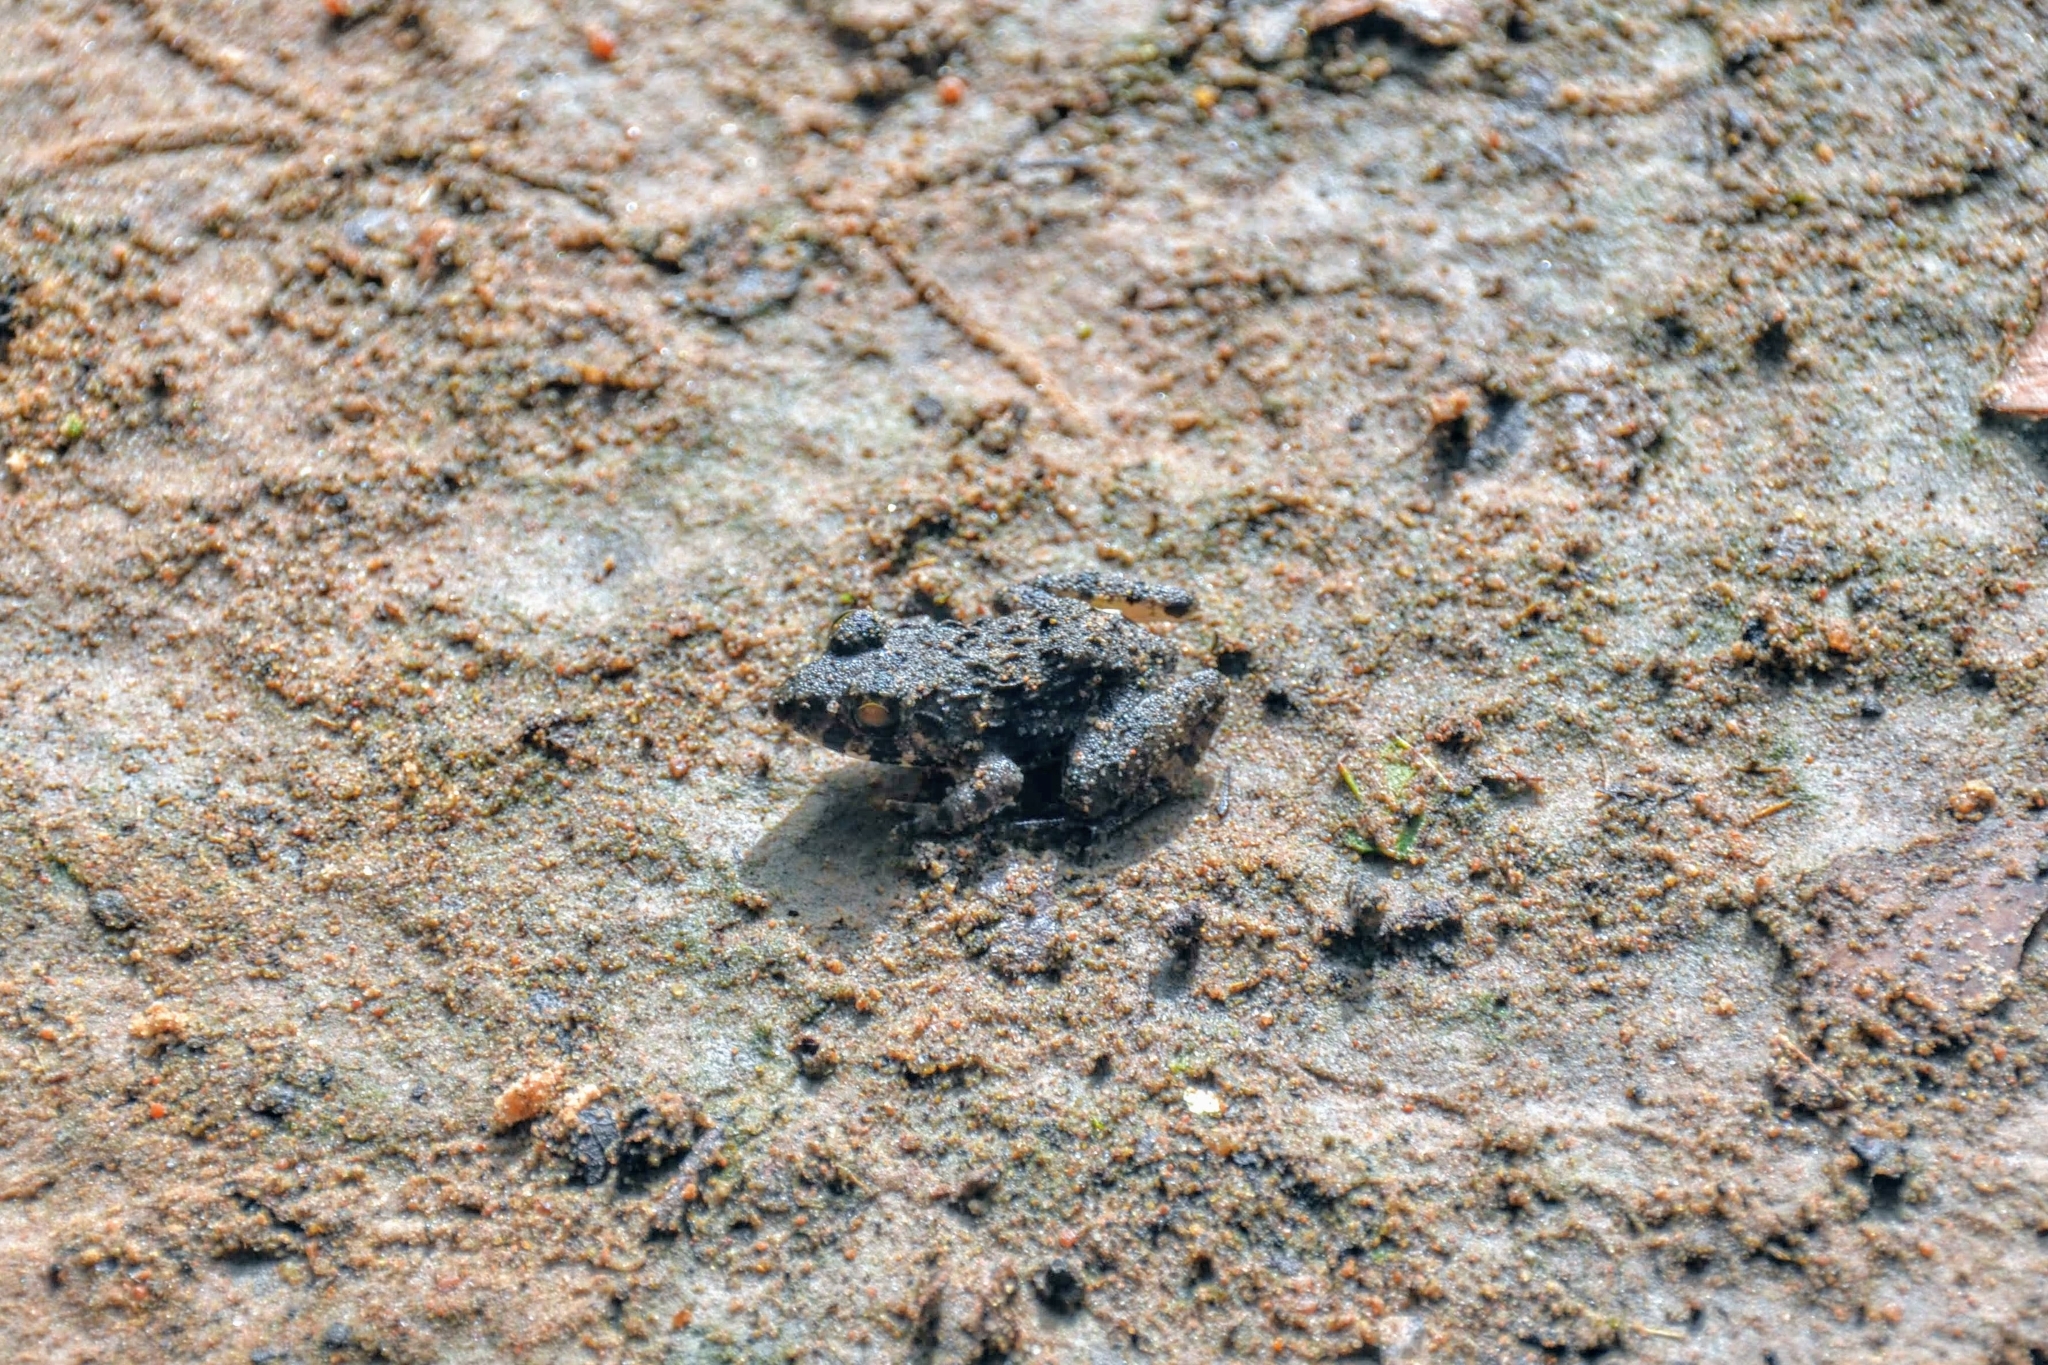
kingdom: Animalia
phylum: Chordata
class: Amphibia
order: Anura
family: Dicroglossidae
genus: Fejervarya
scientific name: Fejervarya limnocharis
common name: Asian grass frog/common pond frog/field frog/grass frog/indian rice frog
